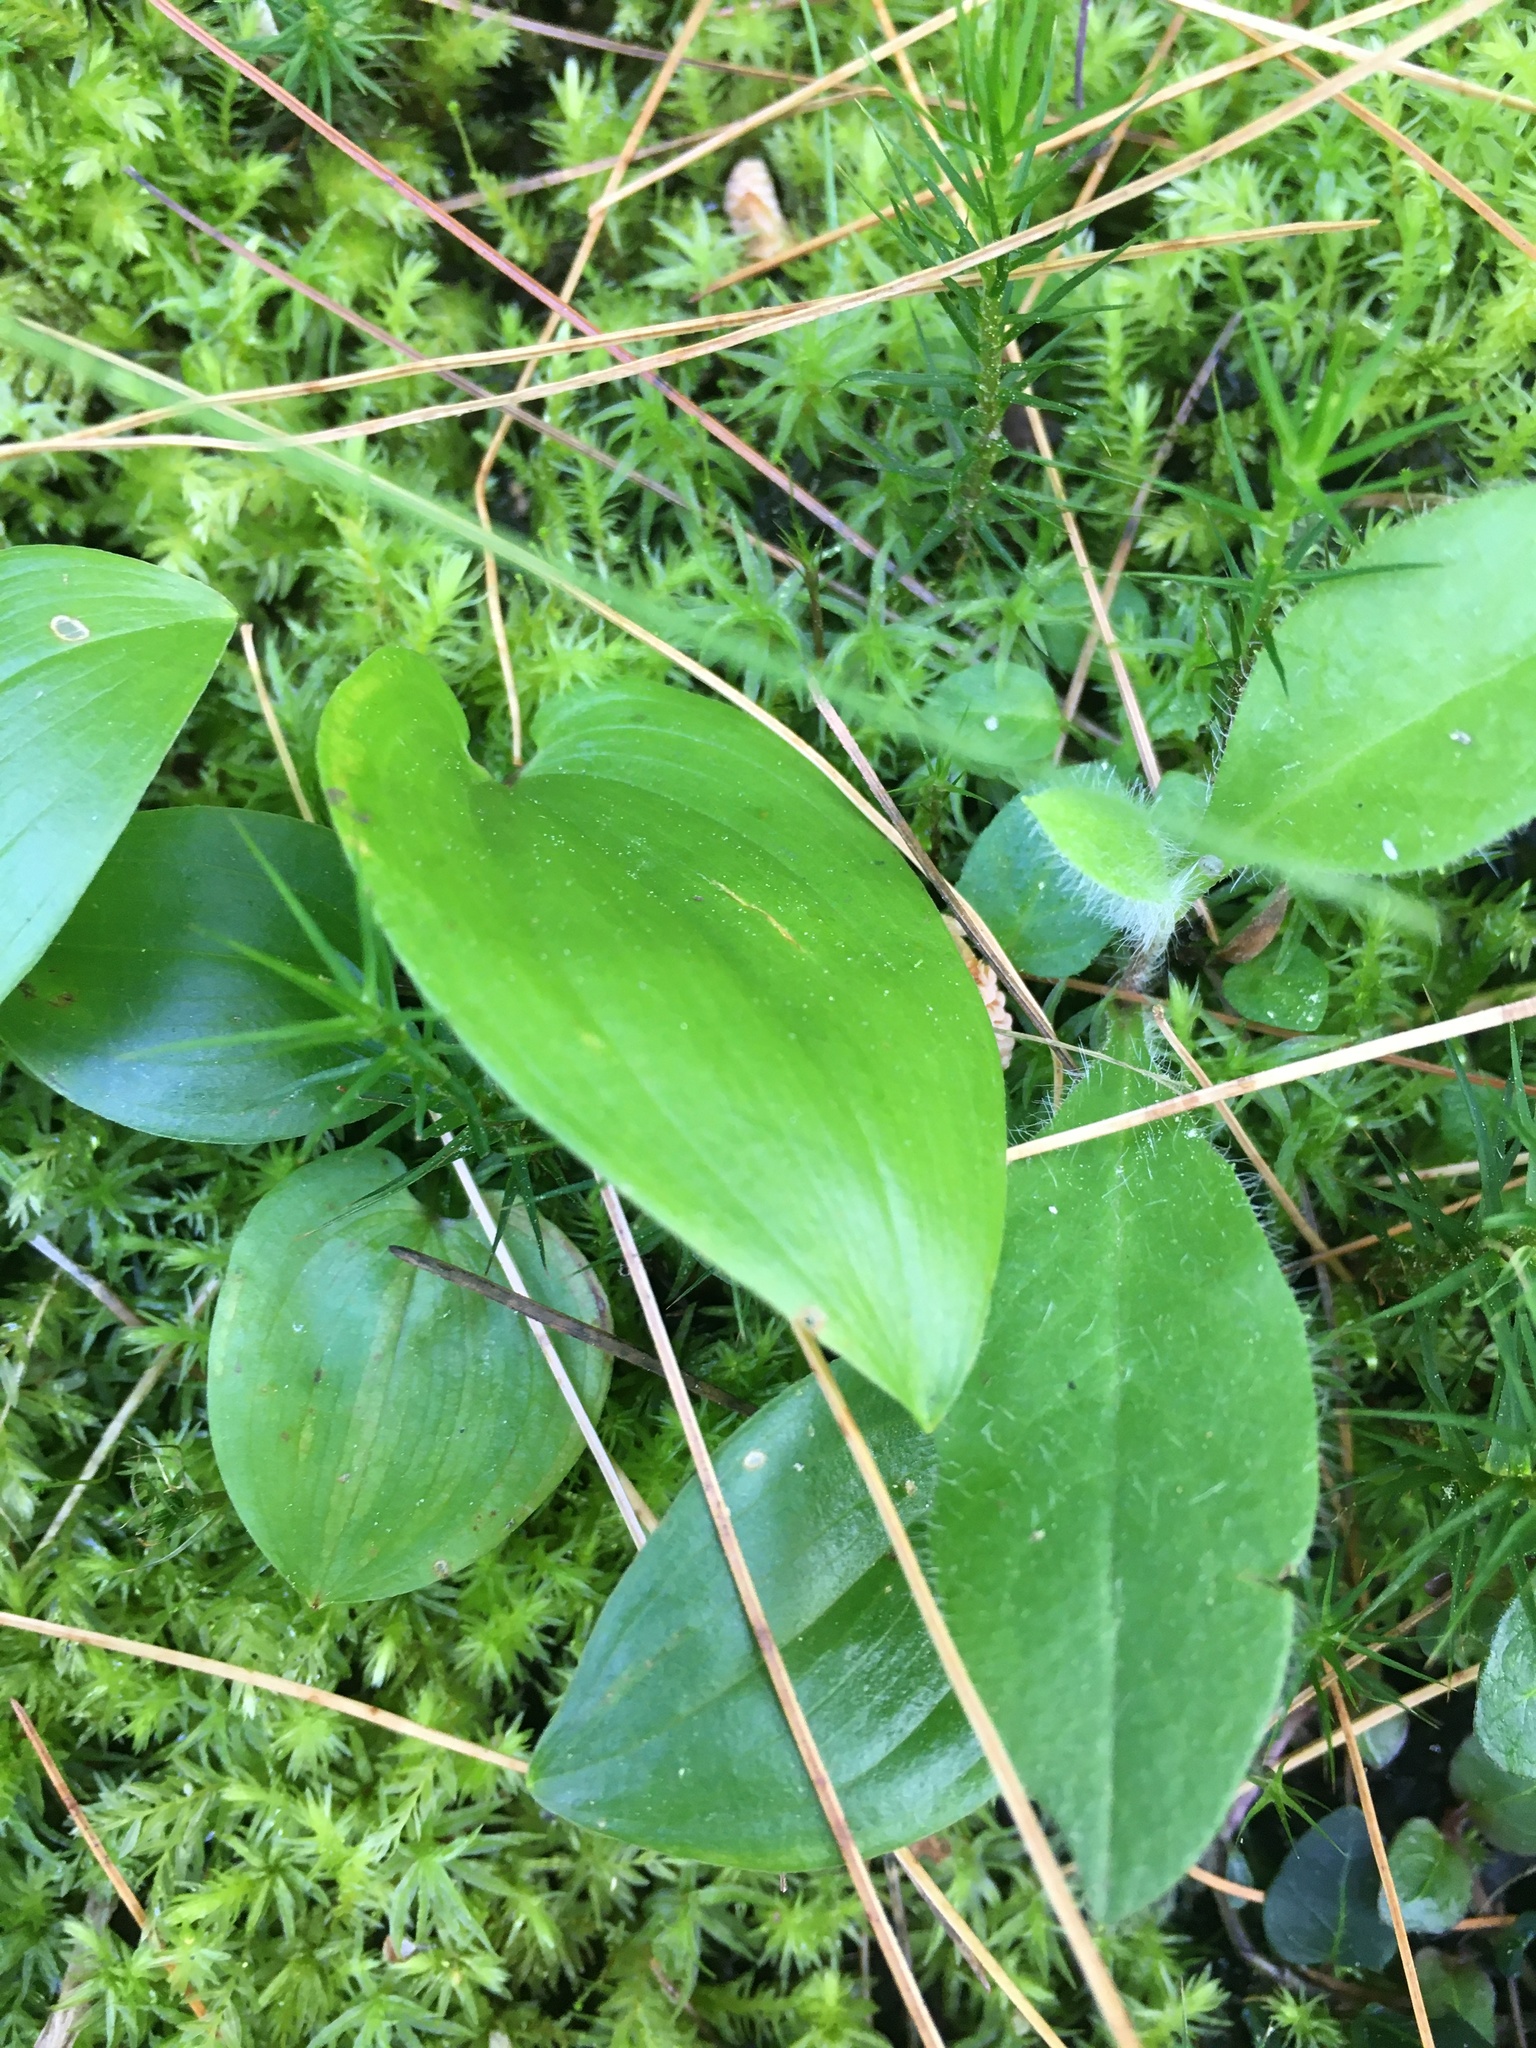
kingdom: Plantae
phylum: Tracheophyta
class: Liliopsida
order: Asparagales
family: Asparagaceae
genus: Maianthemum
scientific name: Maianthemum canadense
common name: False lily-of-the-valley
